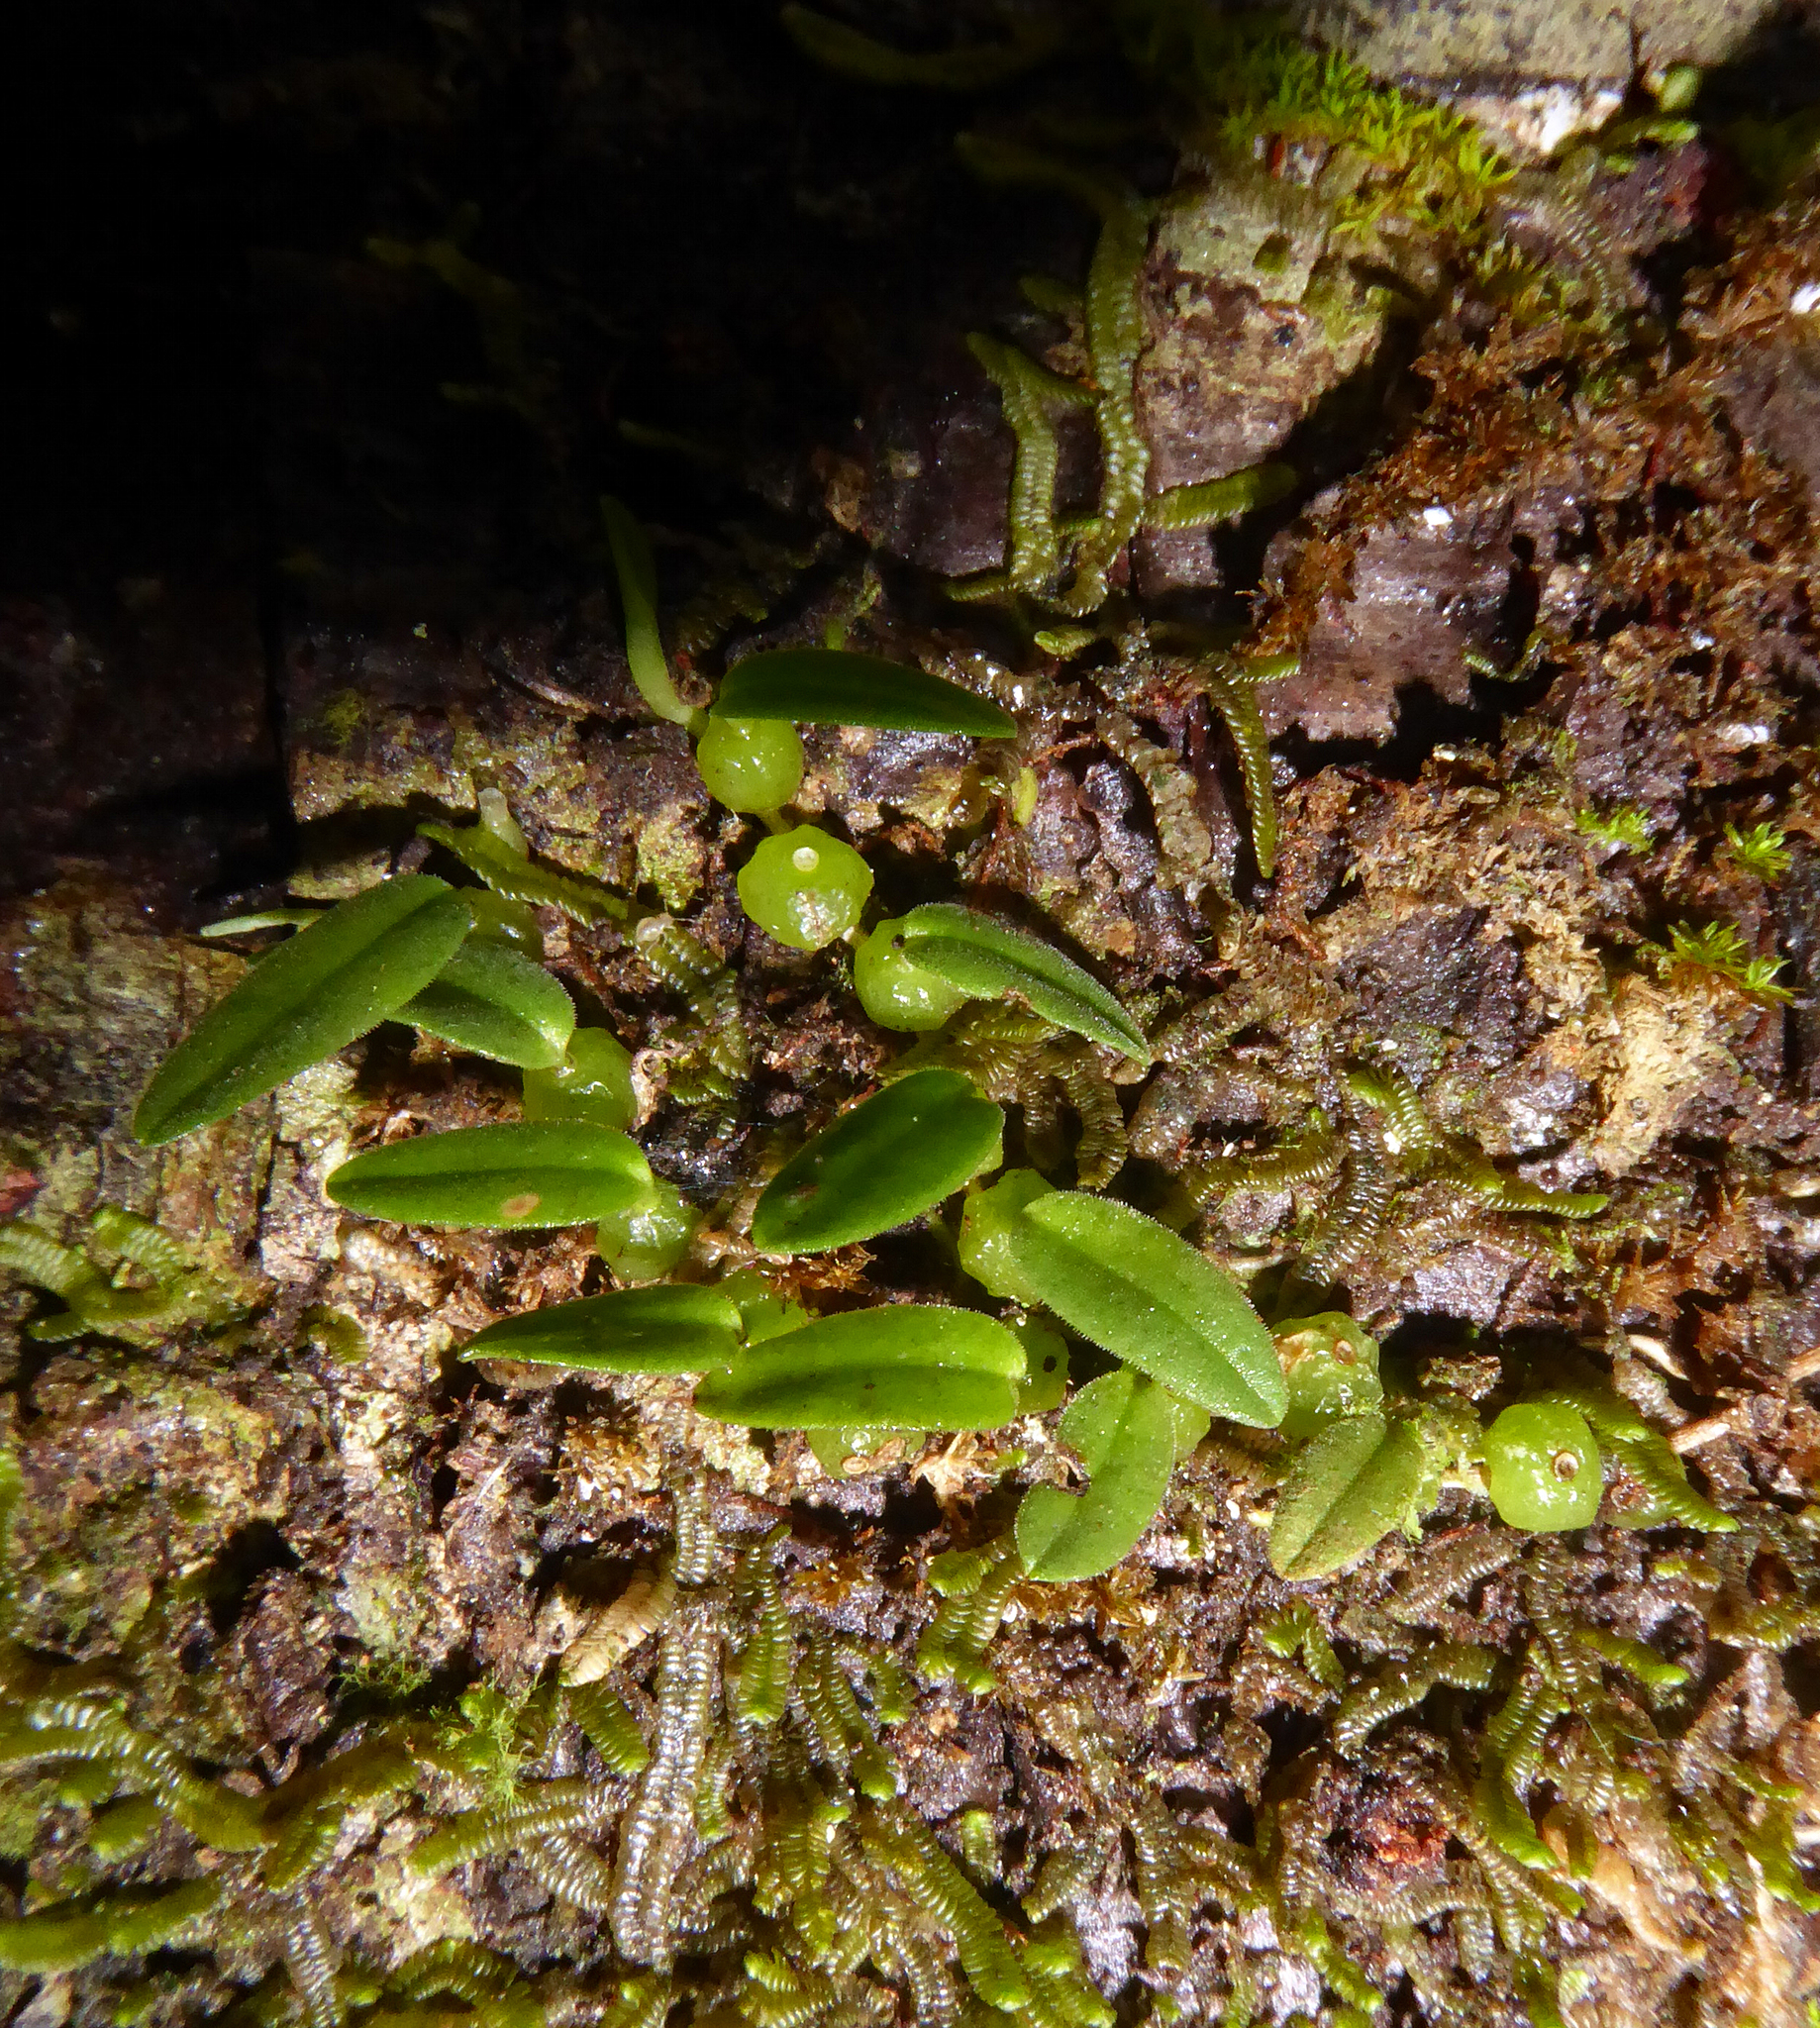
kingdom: Plantae
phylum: Tracheophyta
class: Liliopsida
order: Asparagales
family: Orchidaceae
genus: Bulbophyllum
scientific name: Bulbophyllum pygmaeum
